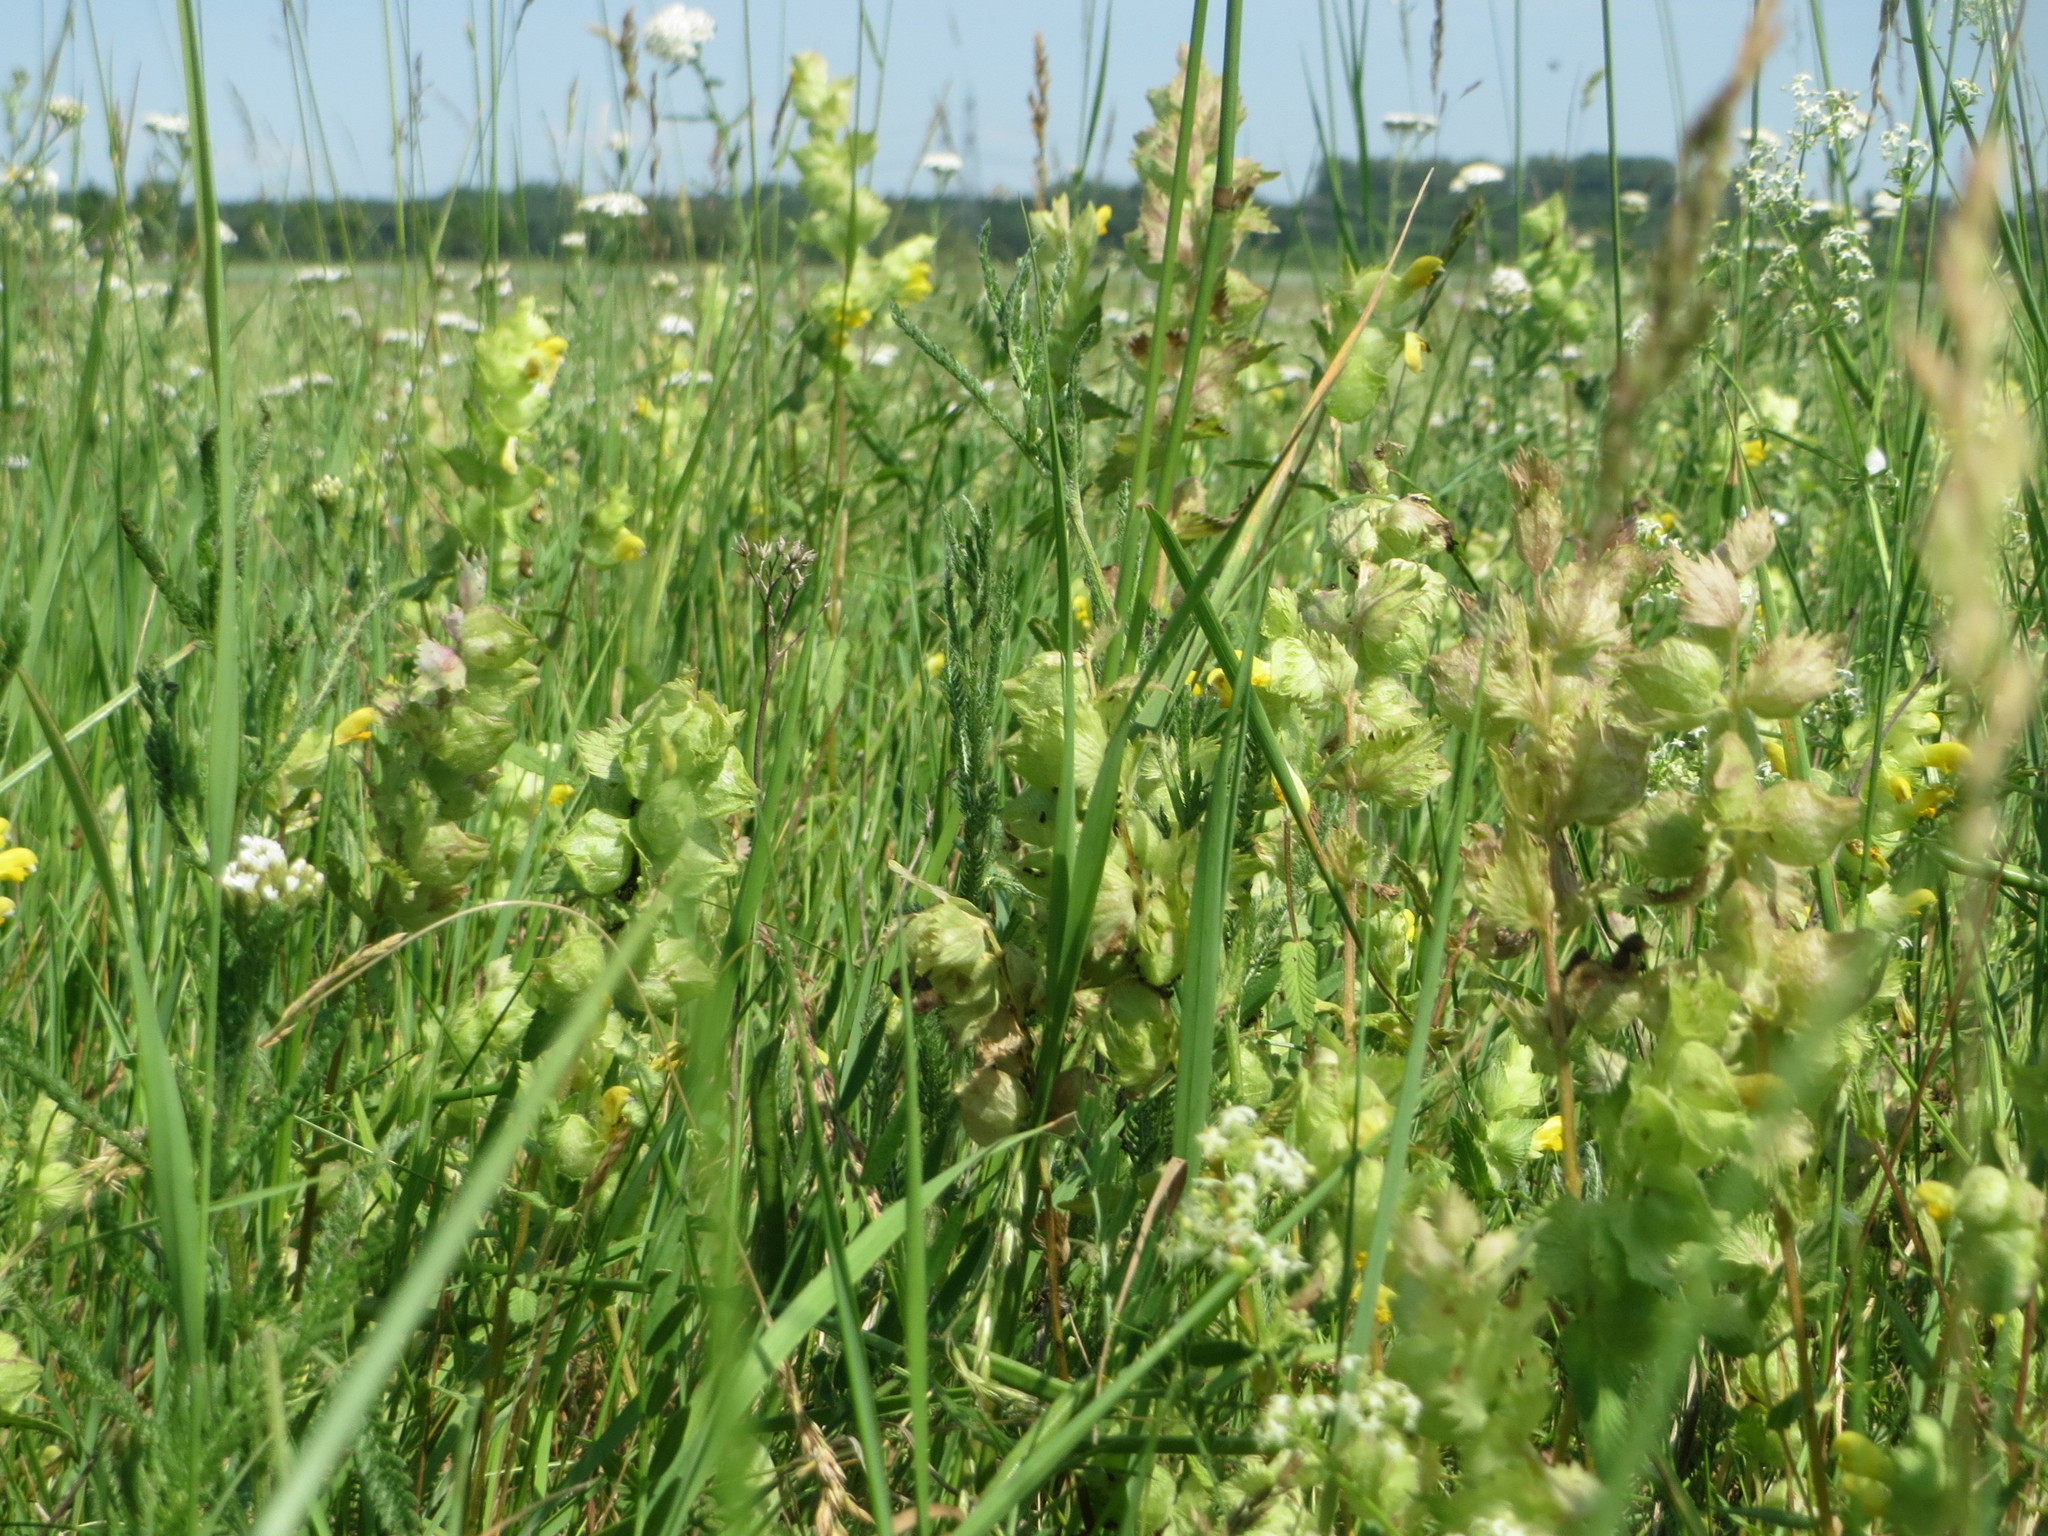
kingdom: Plantae
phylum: Tracheophyta
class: Magnoliopsida
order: Lamiales
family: Orobanchaceae
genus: Rhinanthus
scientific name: Rhinanthus alectorolophus
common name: Greater yellow-rattle
